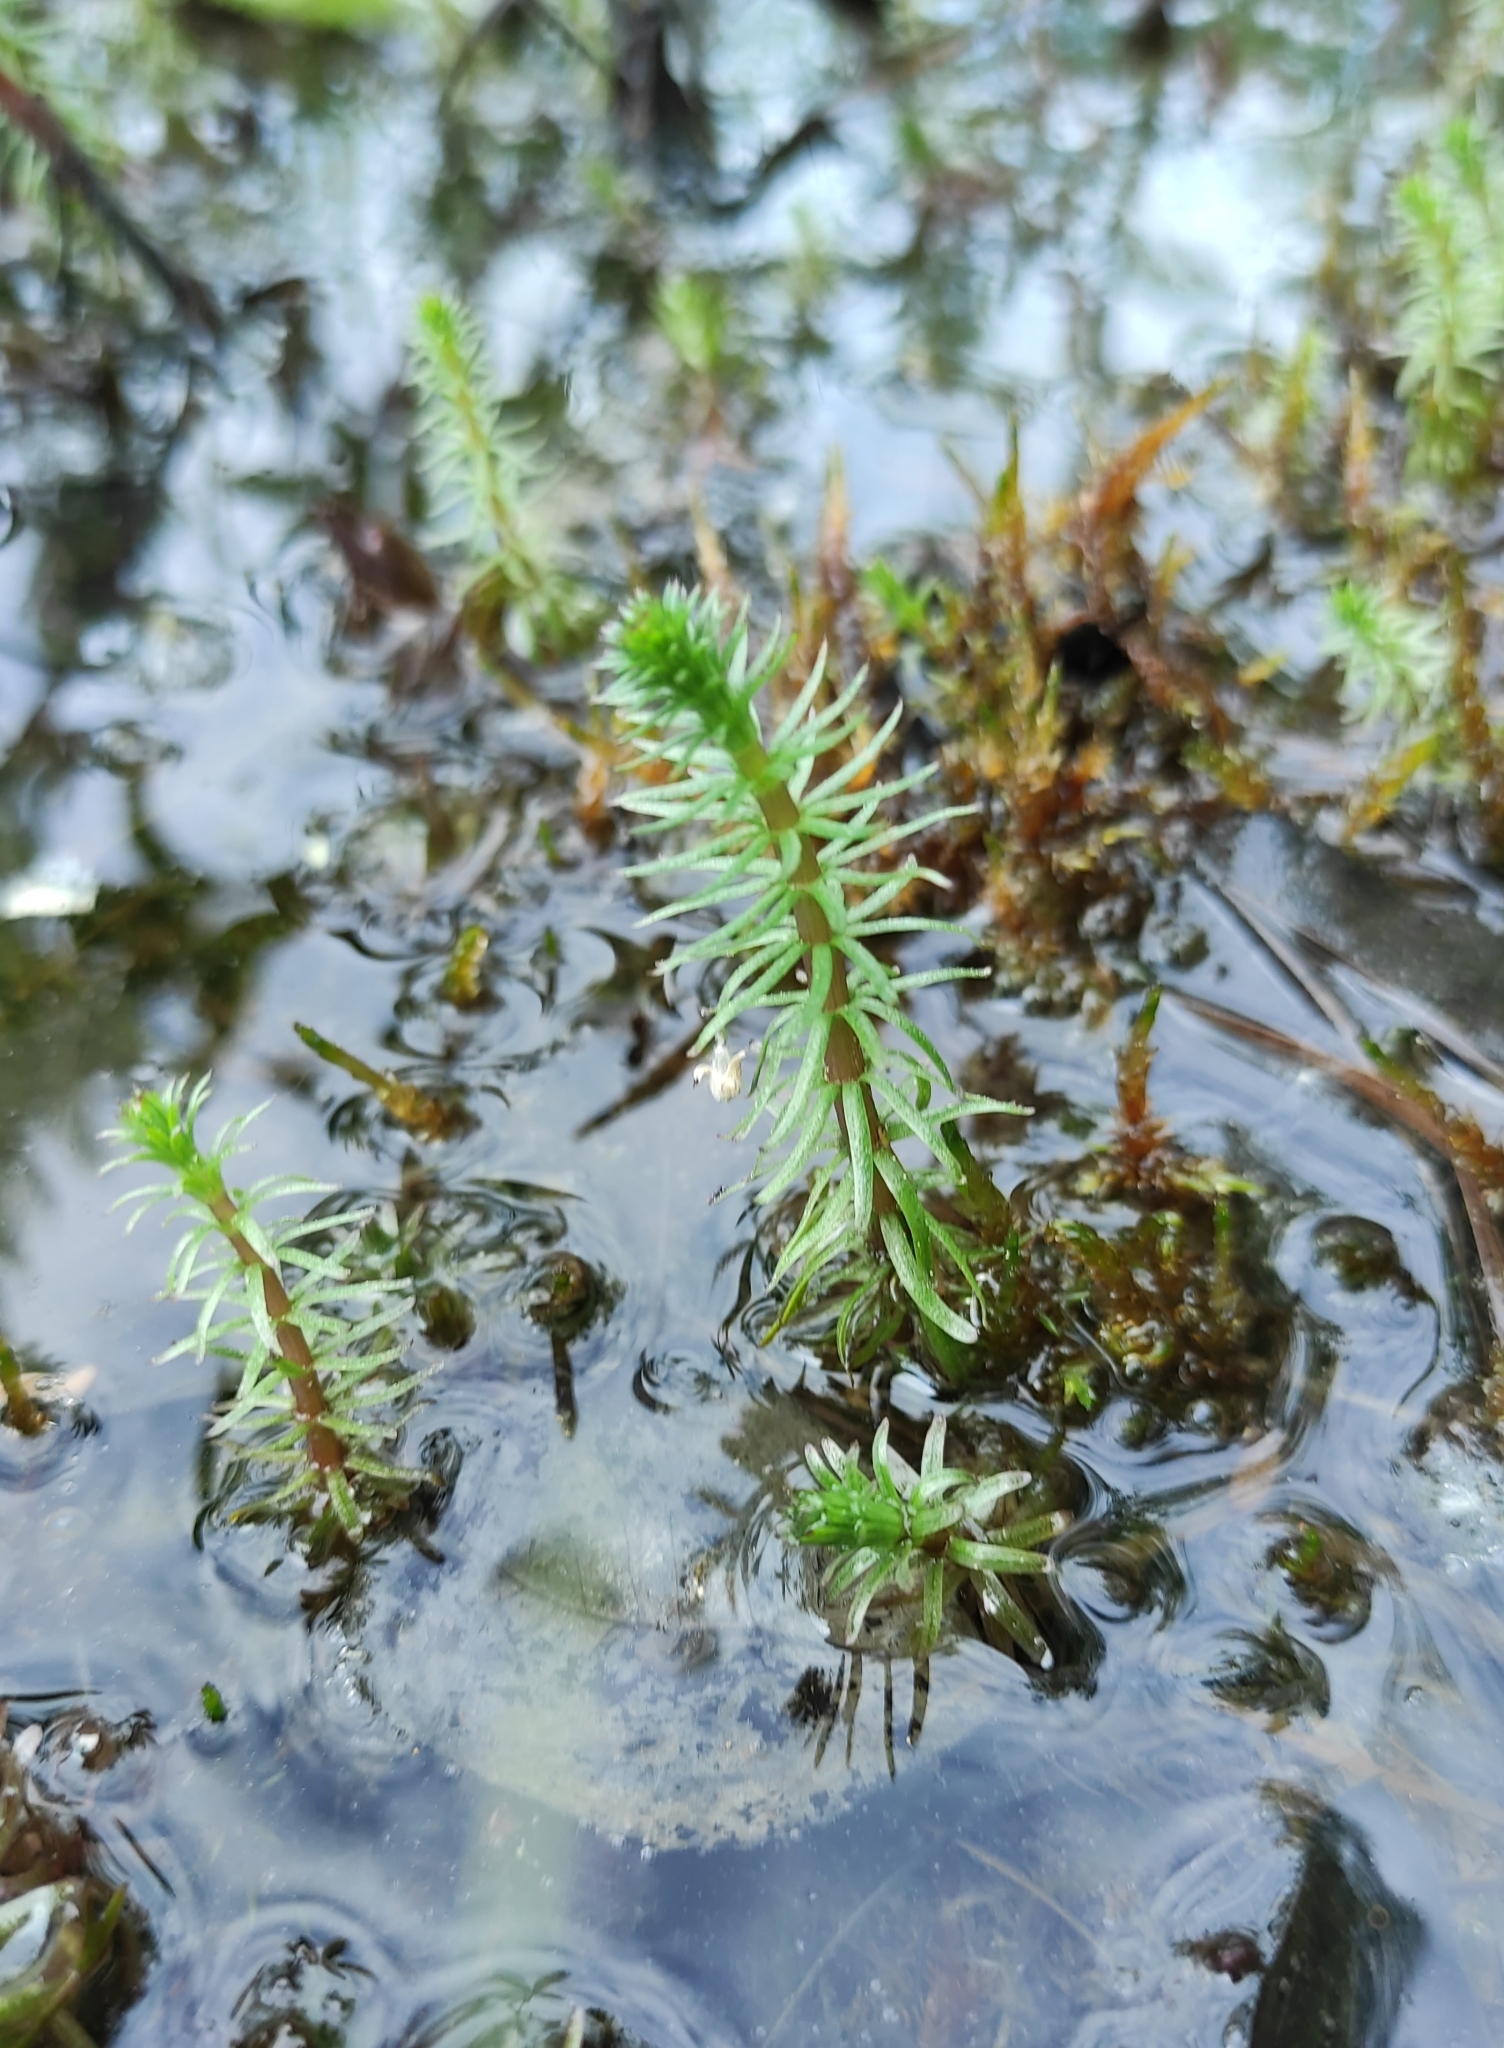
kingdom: Plantae
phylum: Tracheophyta
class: Magnoliopsida
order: Lamiales
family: Plantaginaceae
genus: Hippuris
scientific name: Hippuris vulgaris
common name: Mare's-tail
